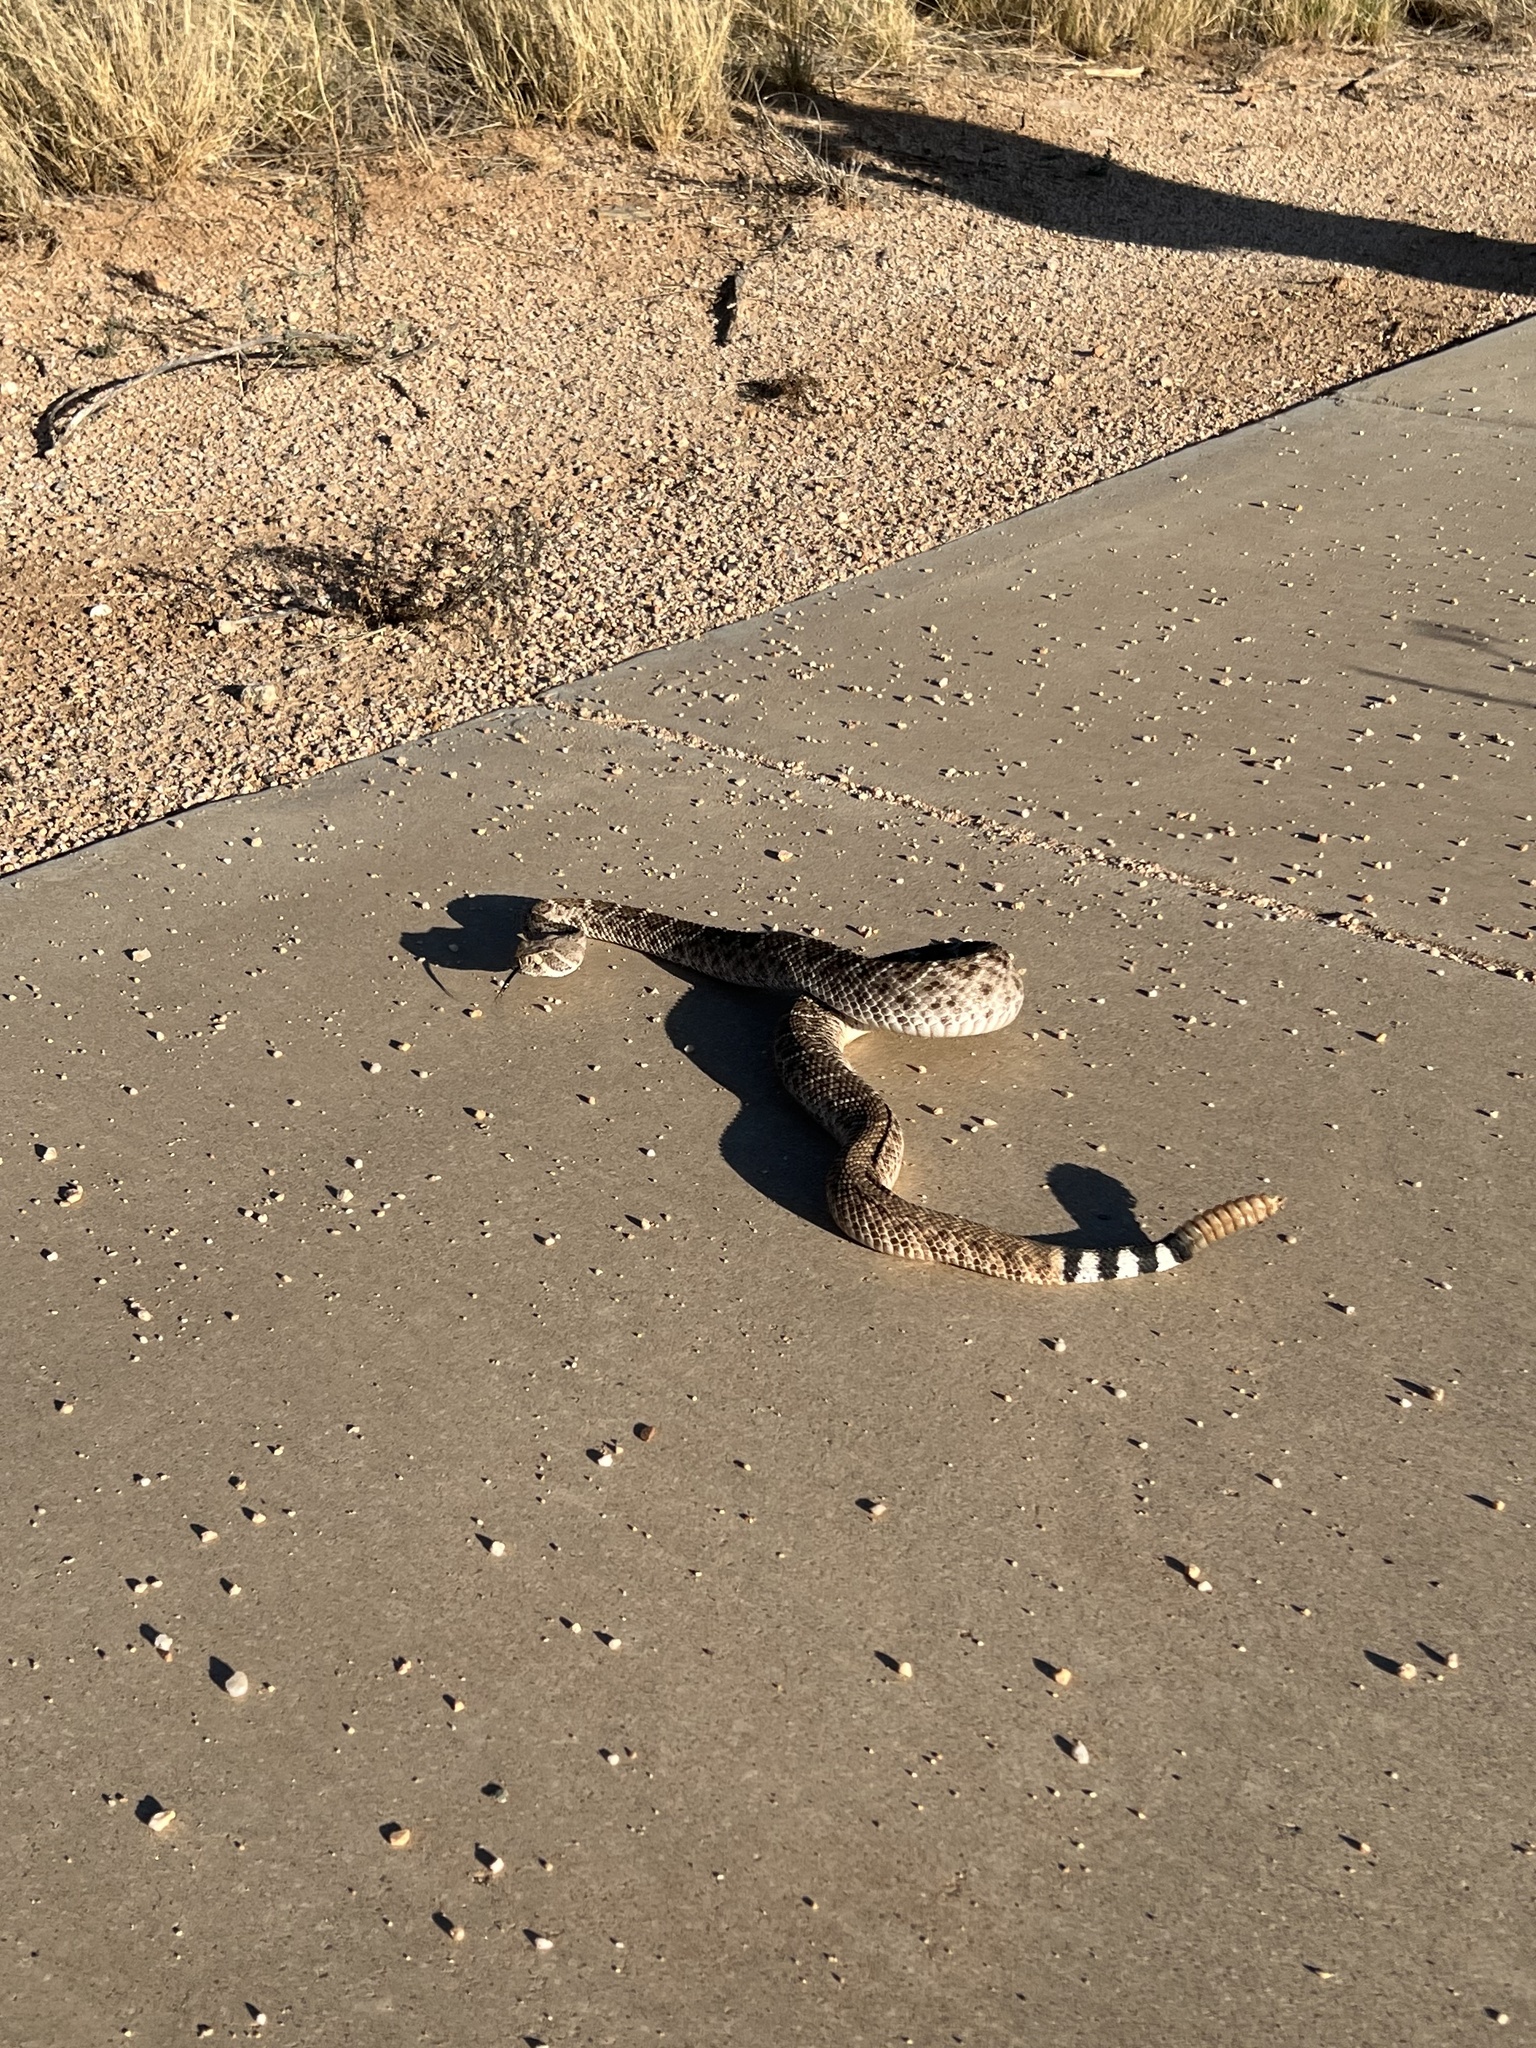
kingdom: Animalia
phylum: Chordata
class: Squamata
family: Viperidae
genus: Crotalus
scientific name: Crotalus atrox
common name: Western diamond-backed rattlesnake
